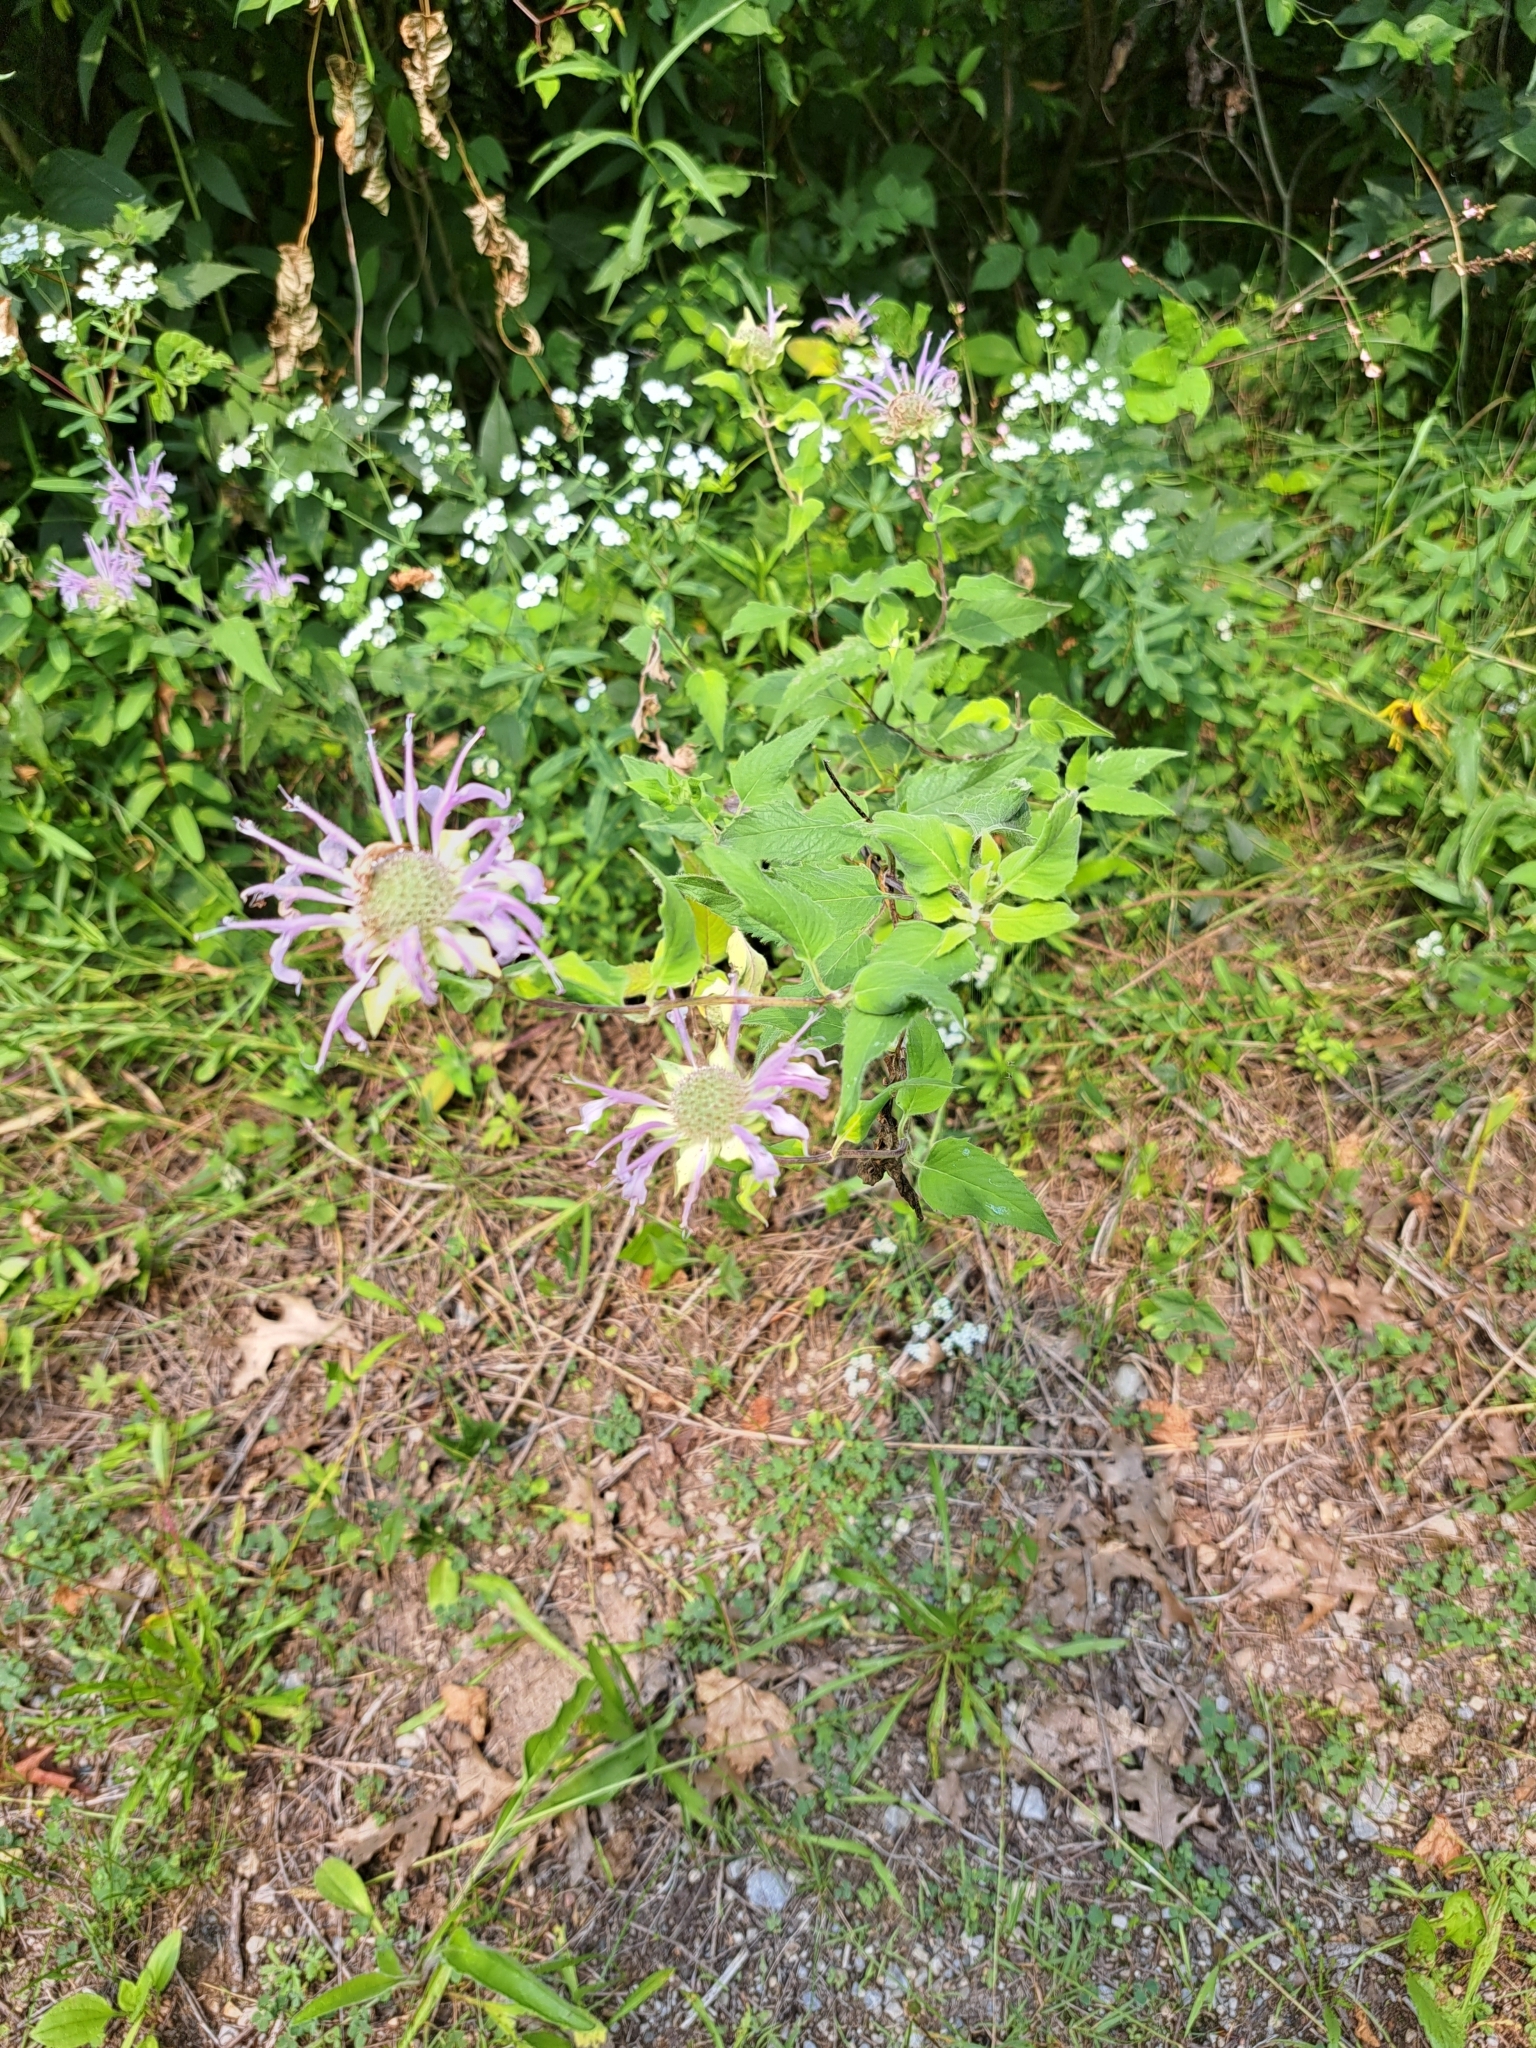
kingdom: Plantae
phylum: Tracheophyta
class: Magnoliopsida
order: Lamiales
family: Lamiaceae
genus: Monarda
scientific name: Monarda fistulosa
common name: Purple beebalm
